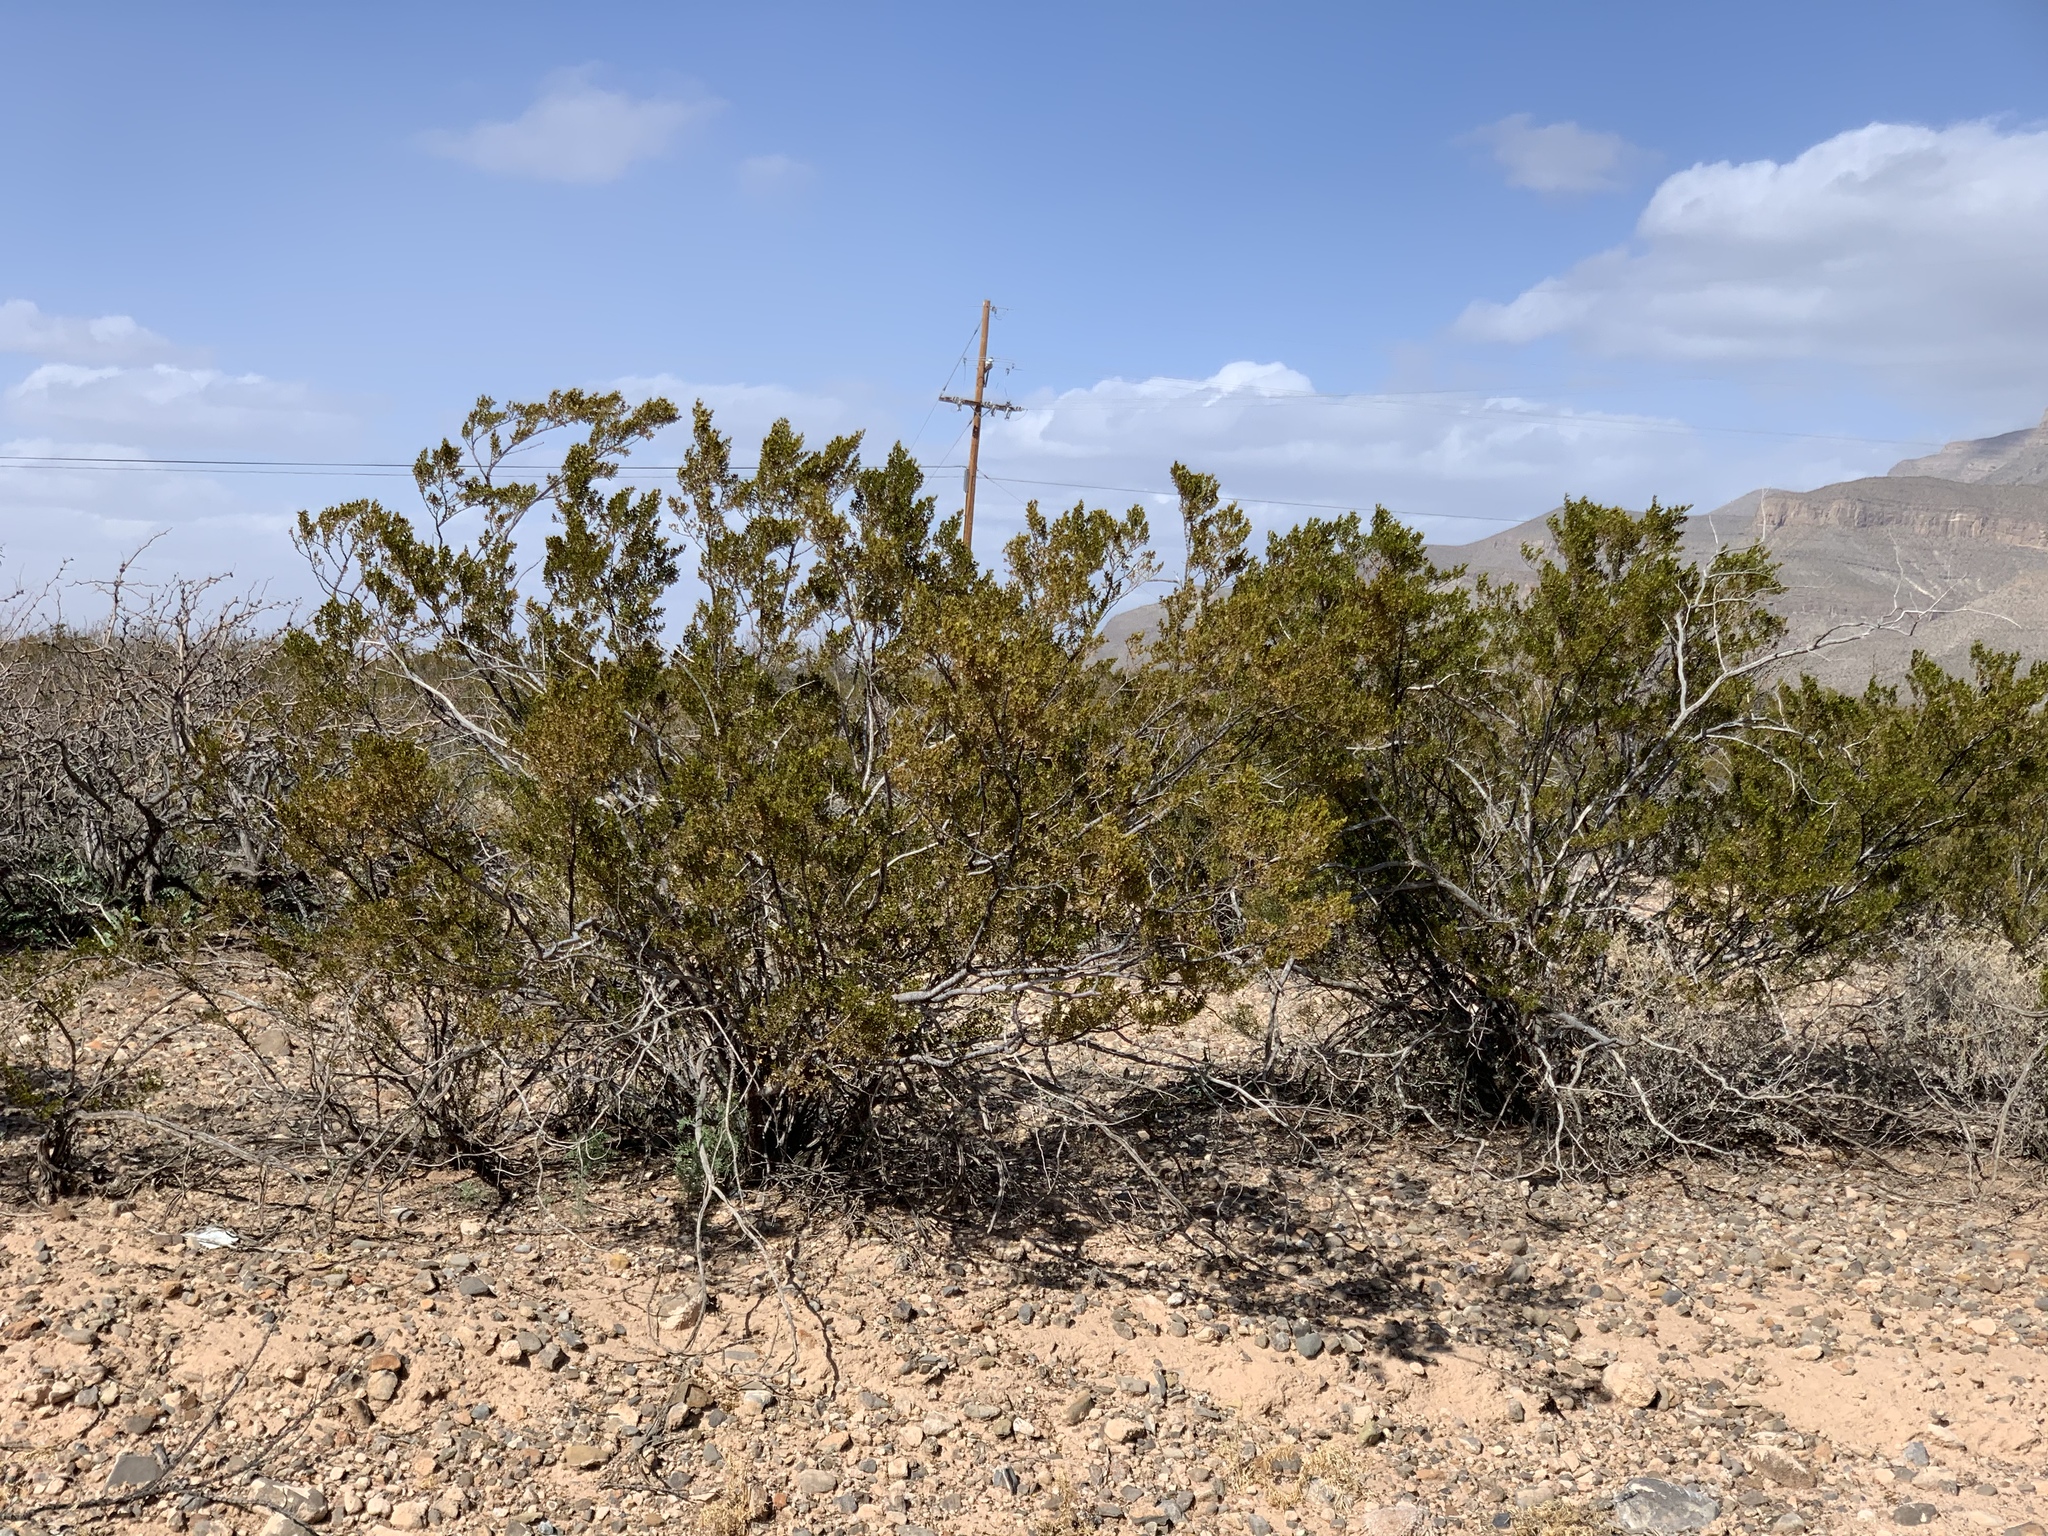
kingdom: Plantae
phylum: Tracheophyta
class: Magnoliopsida
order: Zygophyllales
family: Zygophyllaceae
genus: Larrea
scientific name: Larrea tridentata
